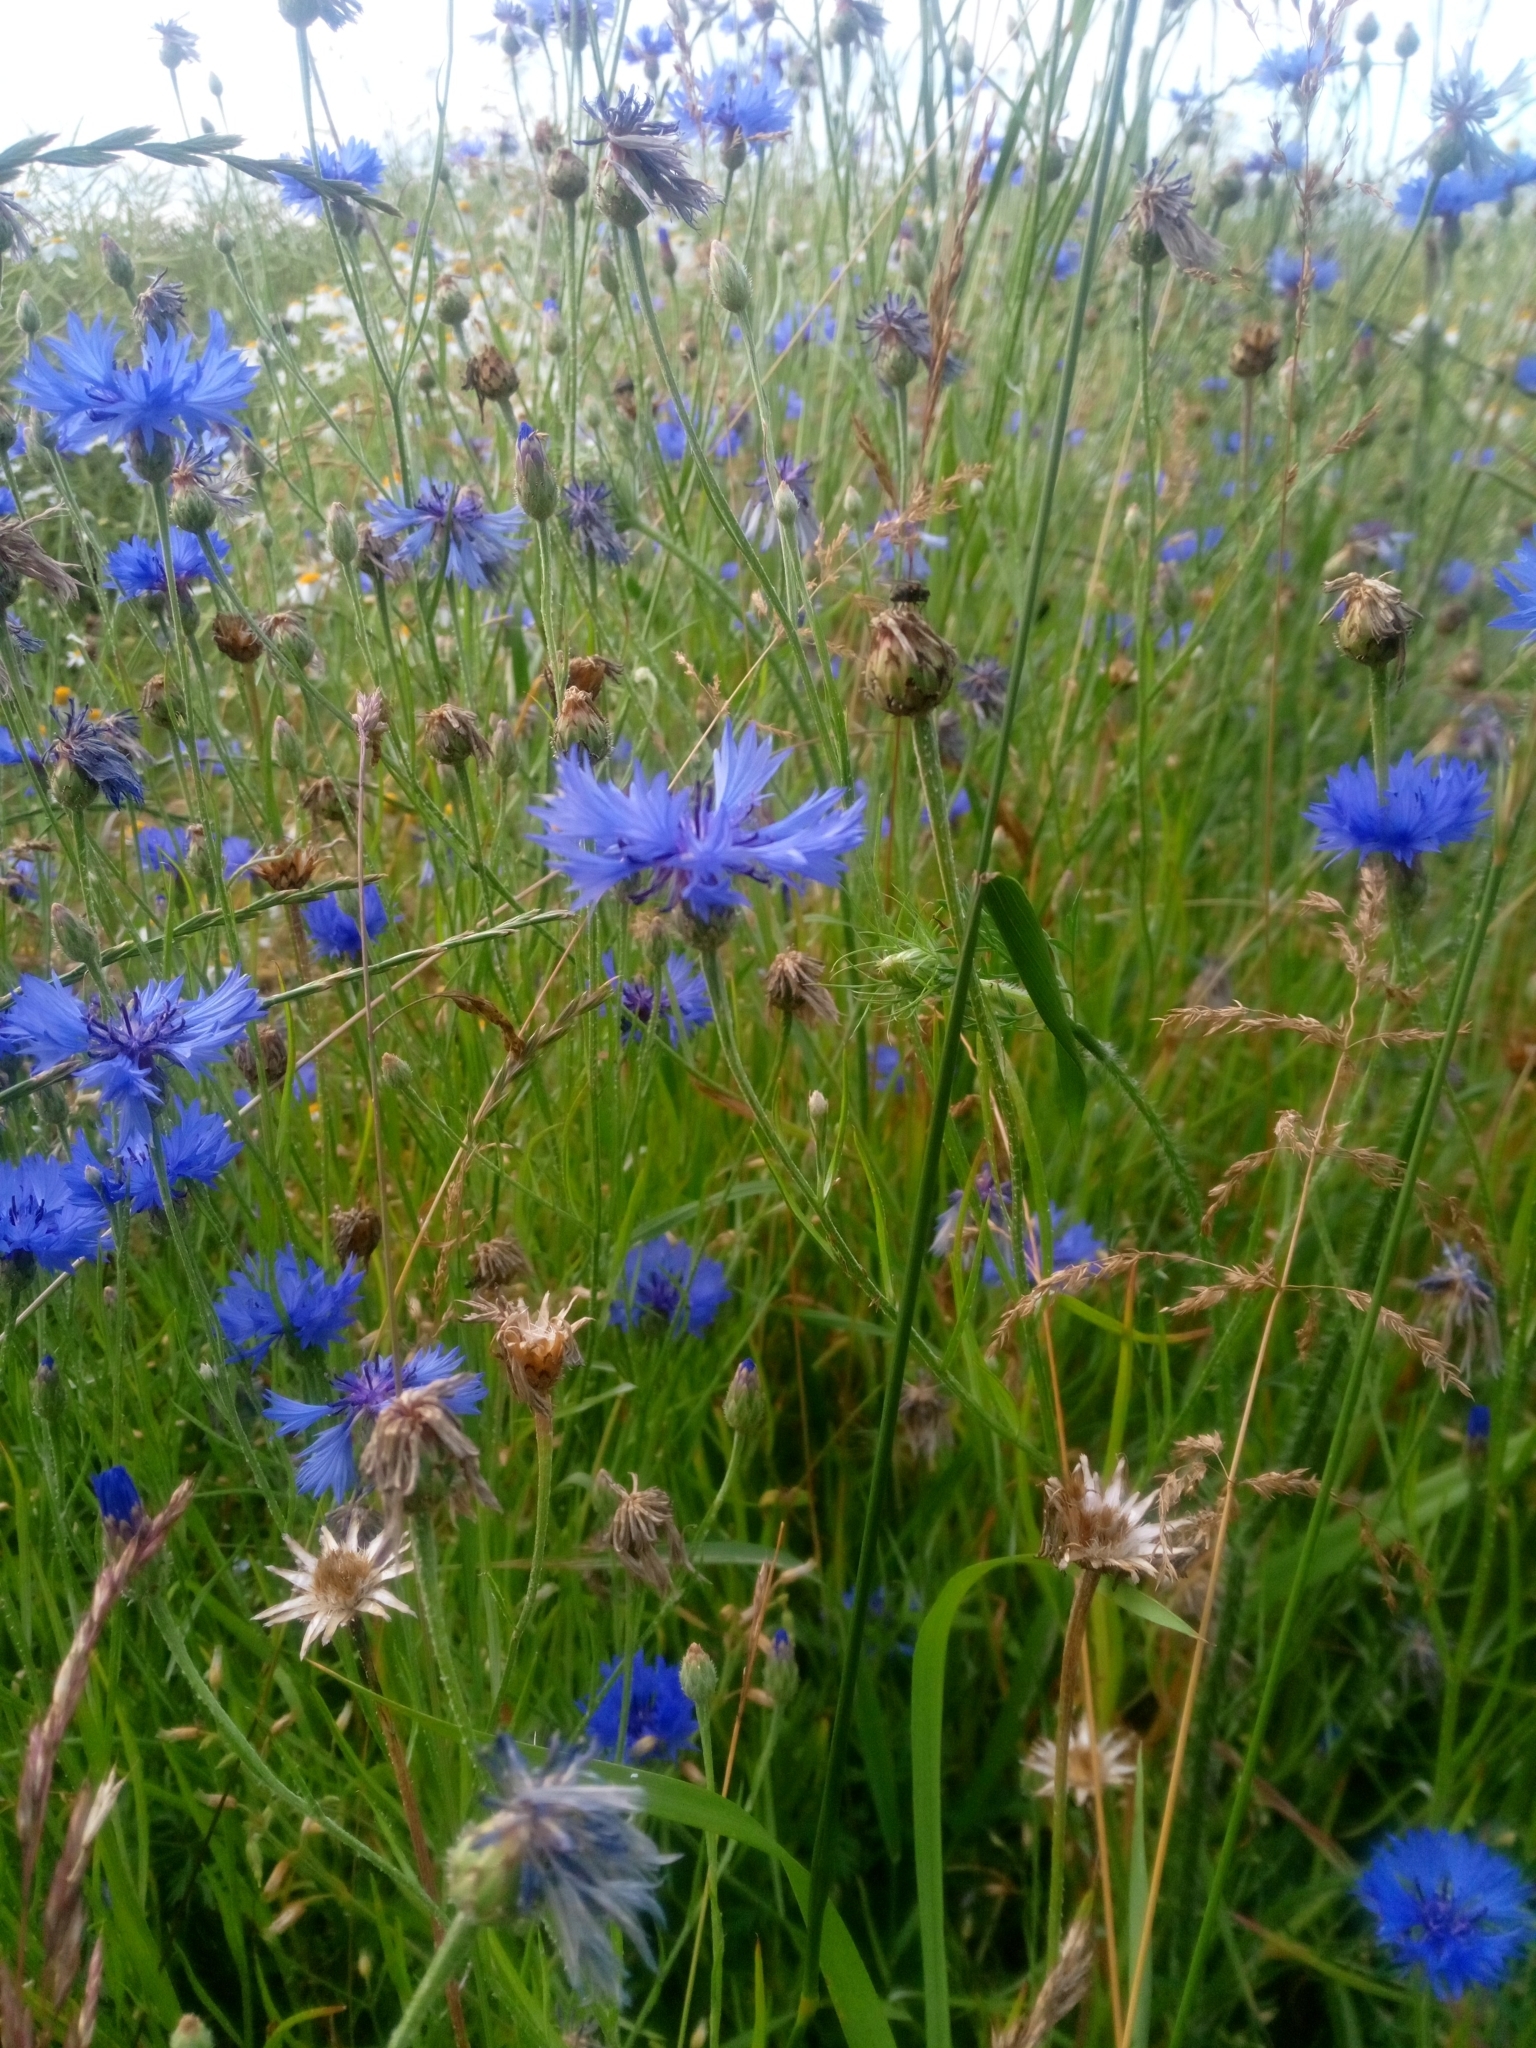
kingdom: Plantae
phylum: Tracheophyta
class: Magnoliopsida
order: Asterales
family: Asteraceae
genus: Centaurea
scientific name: Centaurea cyanus
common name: Cornflower
